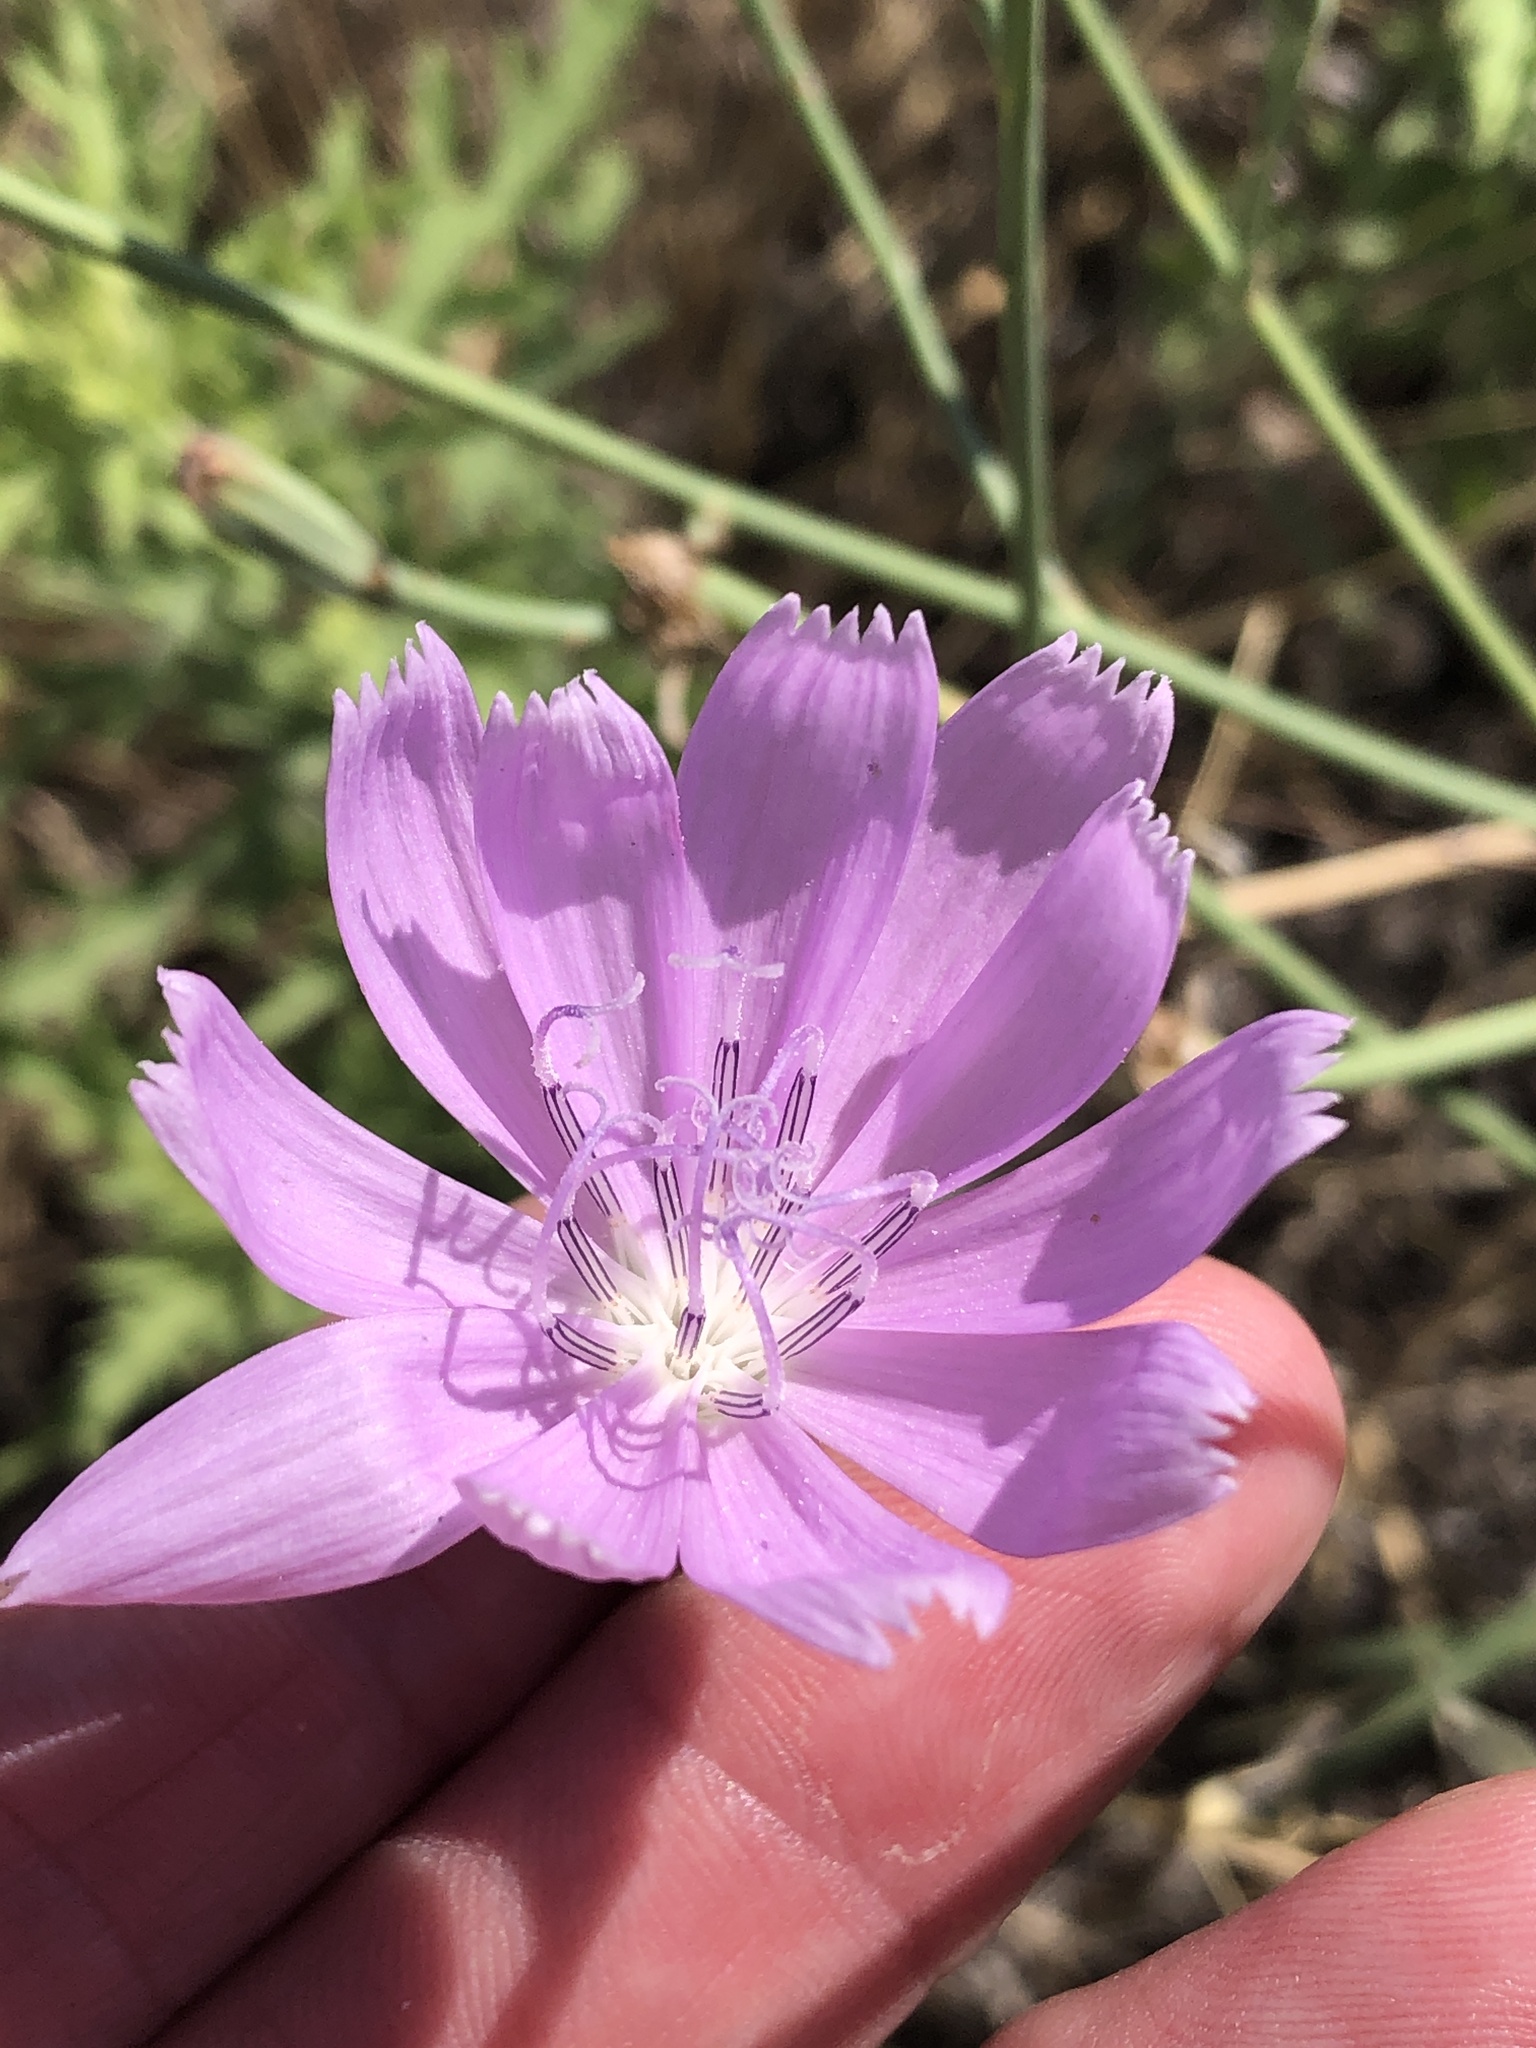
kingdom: Plantae
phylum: Tracheophyta
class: Magnoliopsida
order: Asterales
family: Asteraceae
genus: Lygodesmia
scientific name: Lygodesmia texana
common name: Texas skeleton-plant
